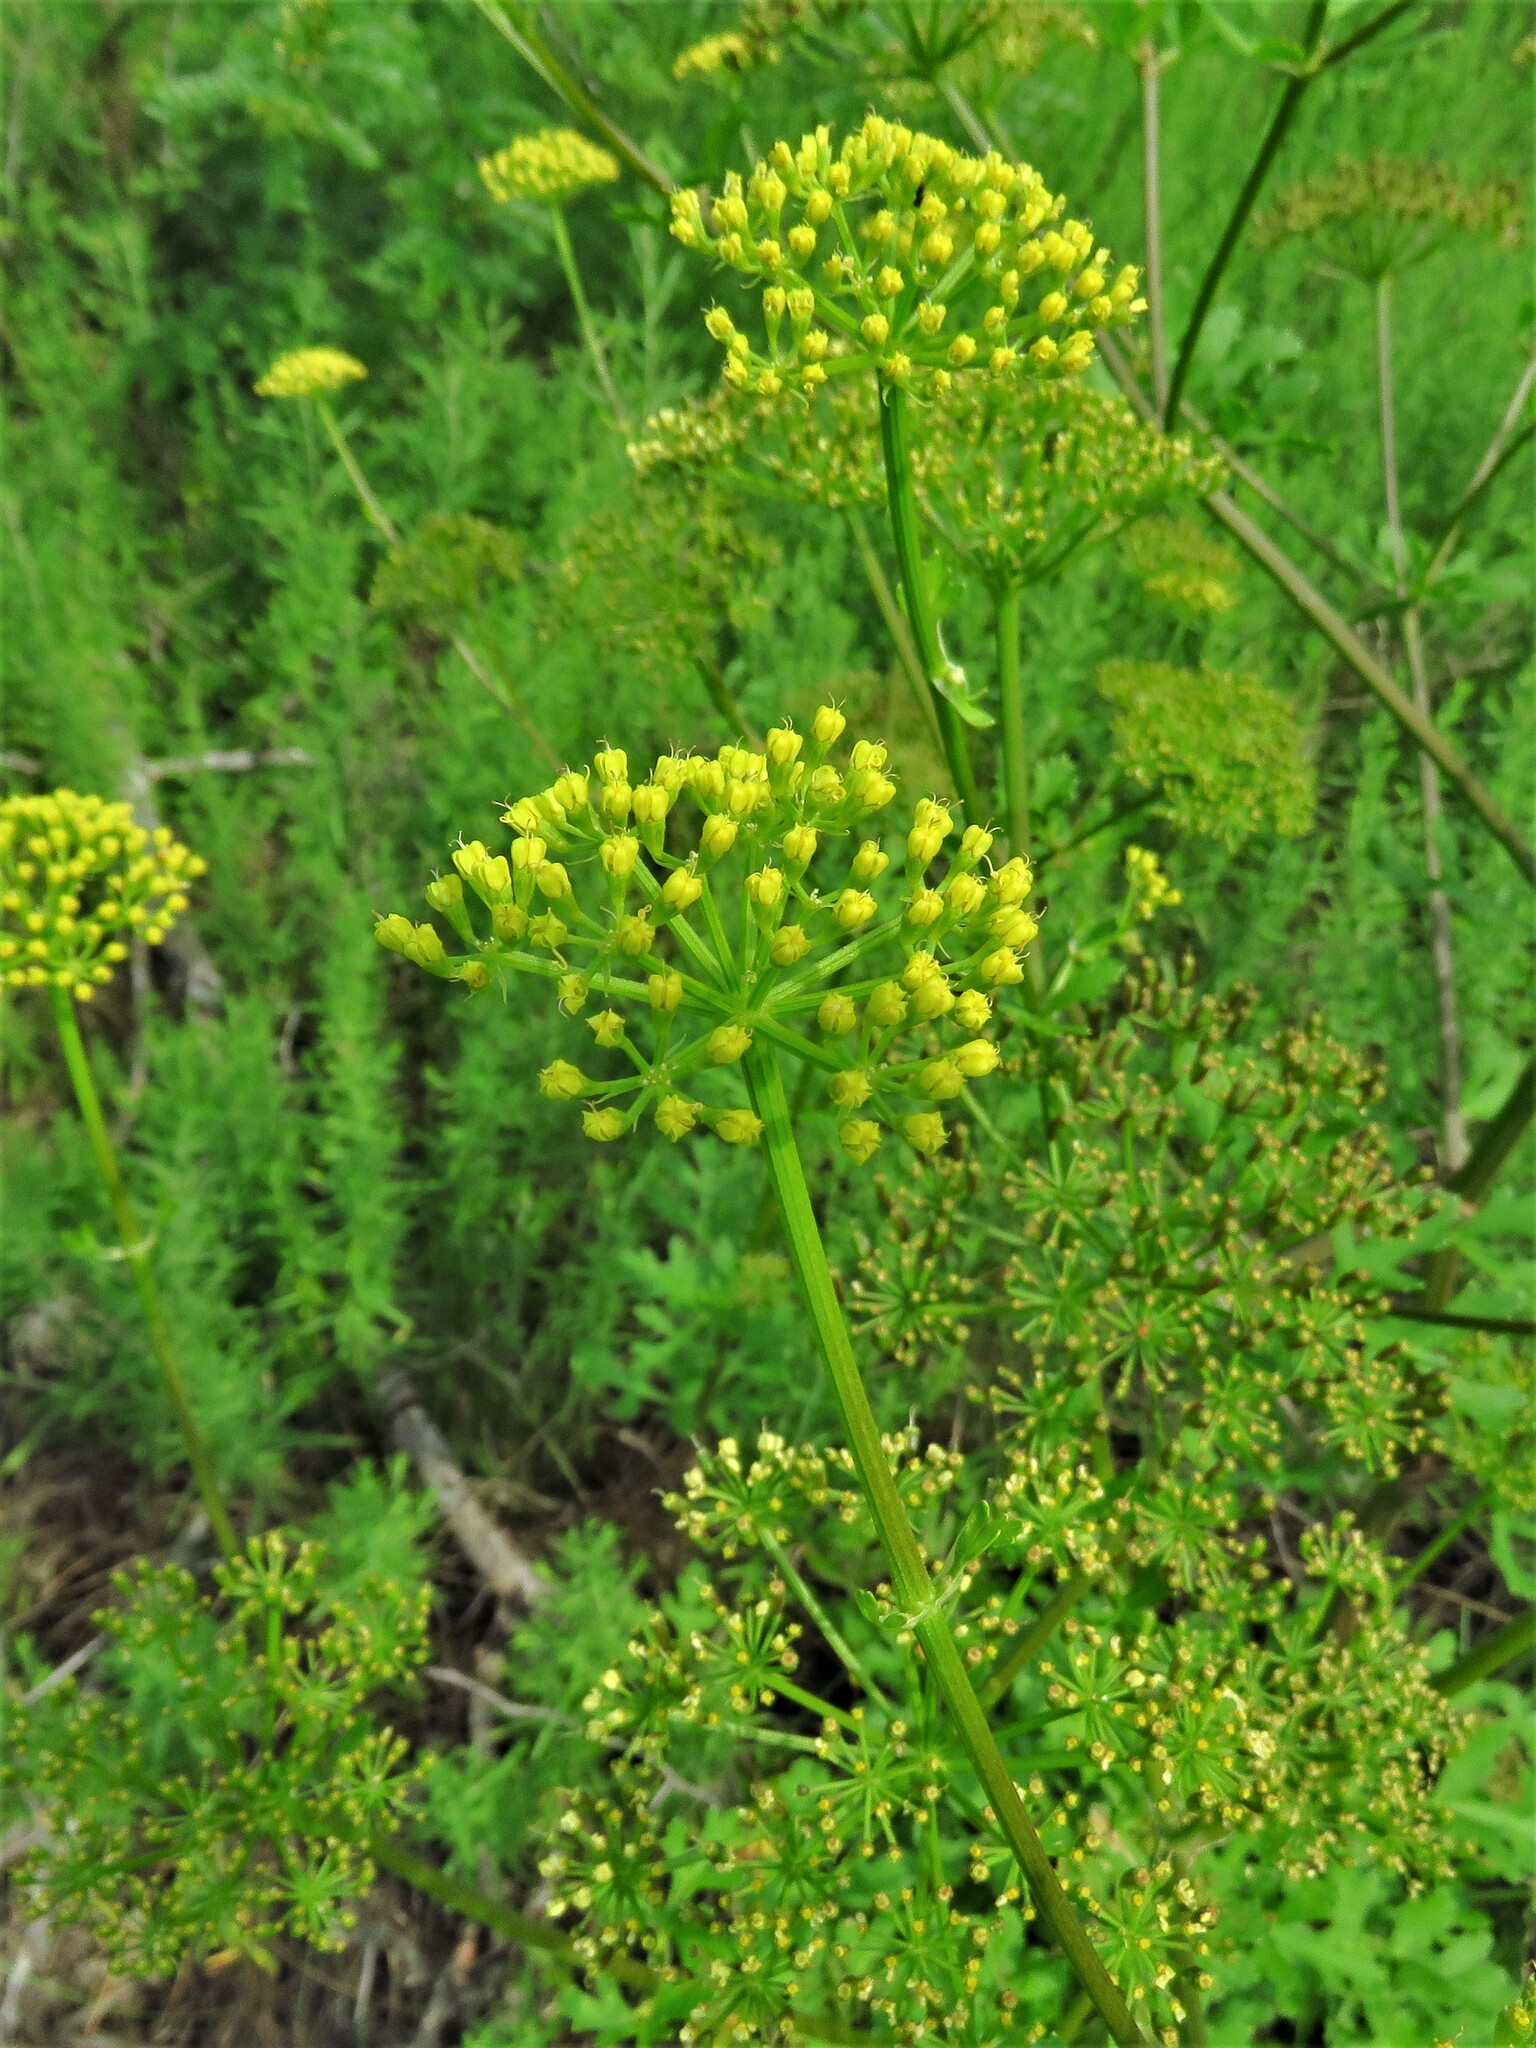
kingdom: Plantae
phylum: Tracheophyta
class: Magnoliopsida
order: Apiales
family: Apiaceae
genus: Polytaenia
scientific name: Polytaenia texana
